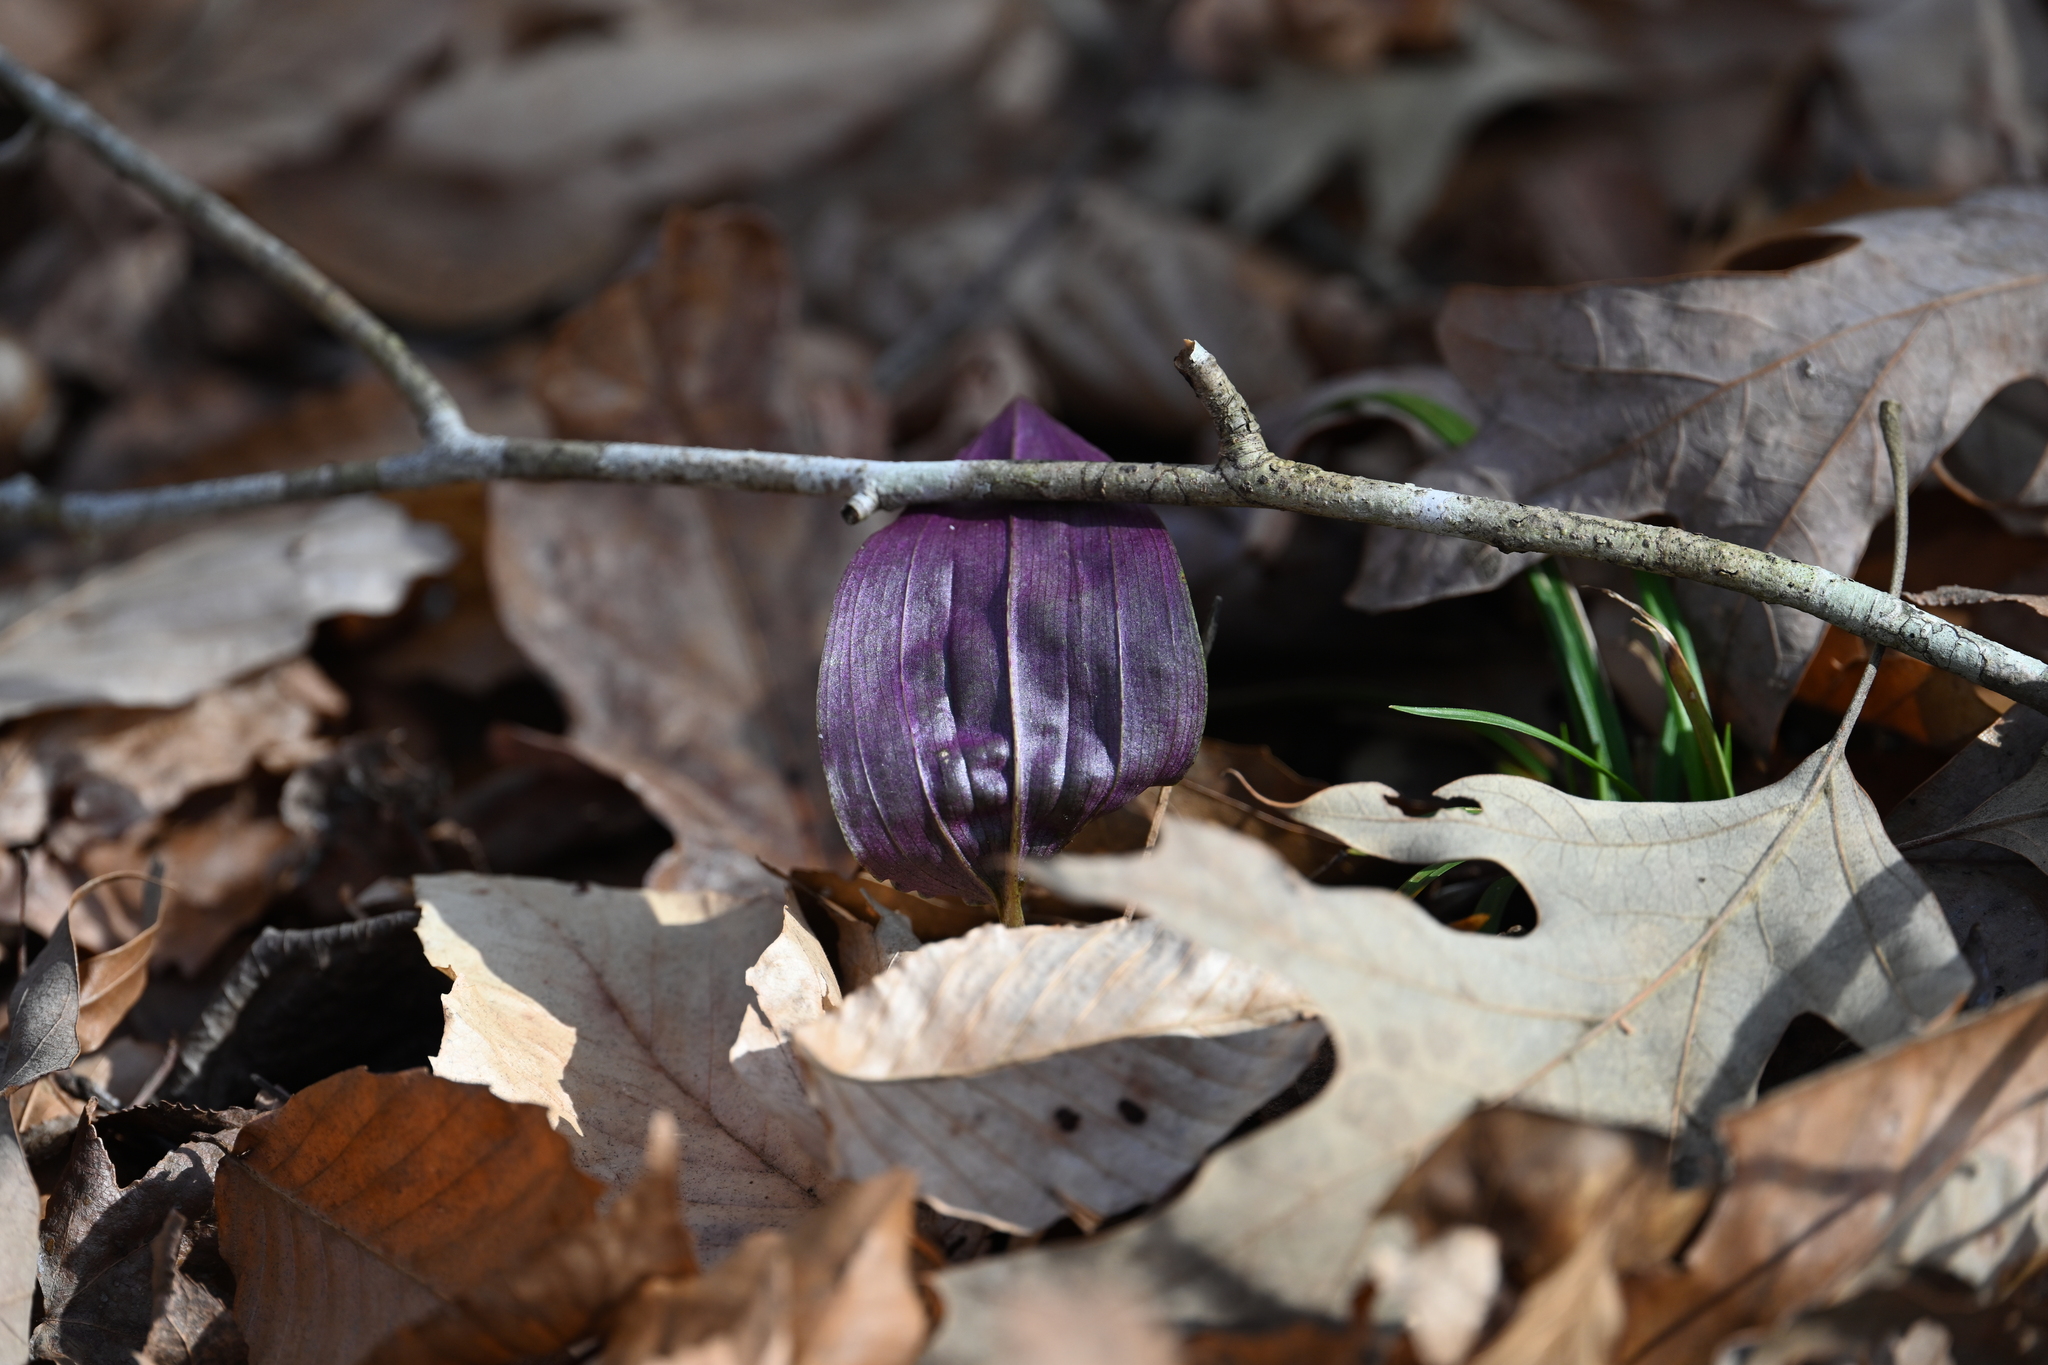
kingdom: Plantae
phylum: Tracheophyta
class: Liliopsida
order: Asparagales
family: Orchidaceae
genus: Tipularia
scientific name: Tipularia discolor
